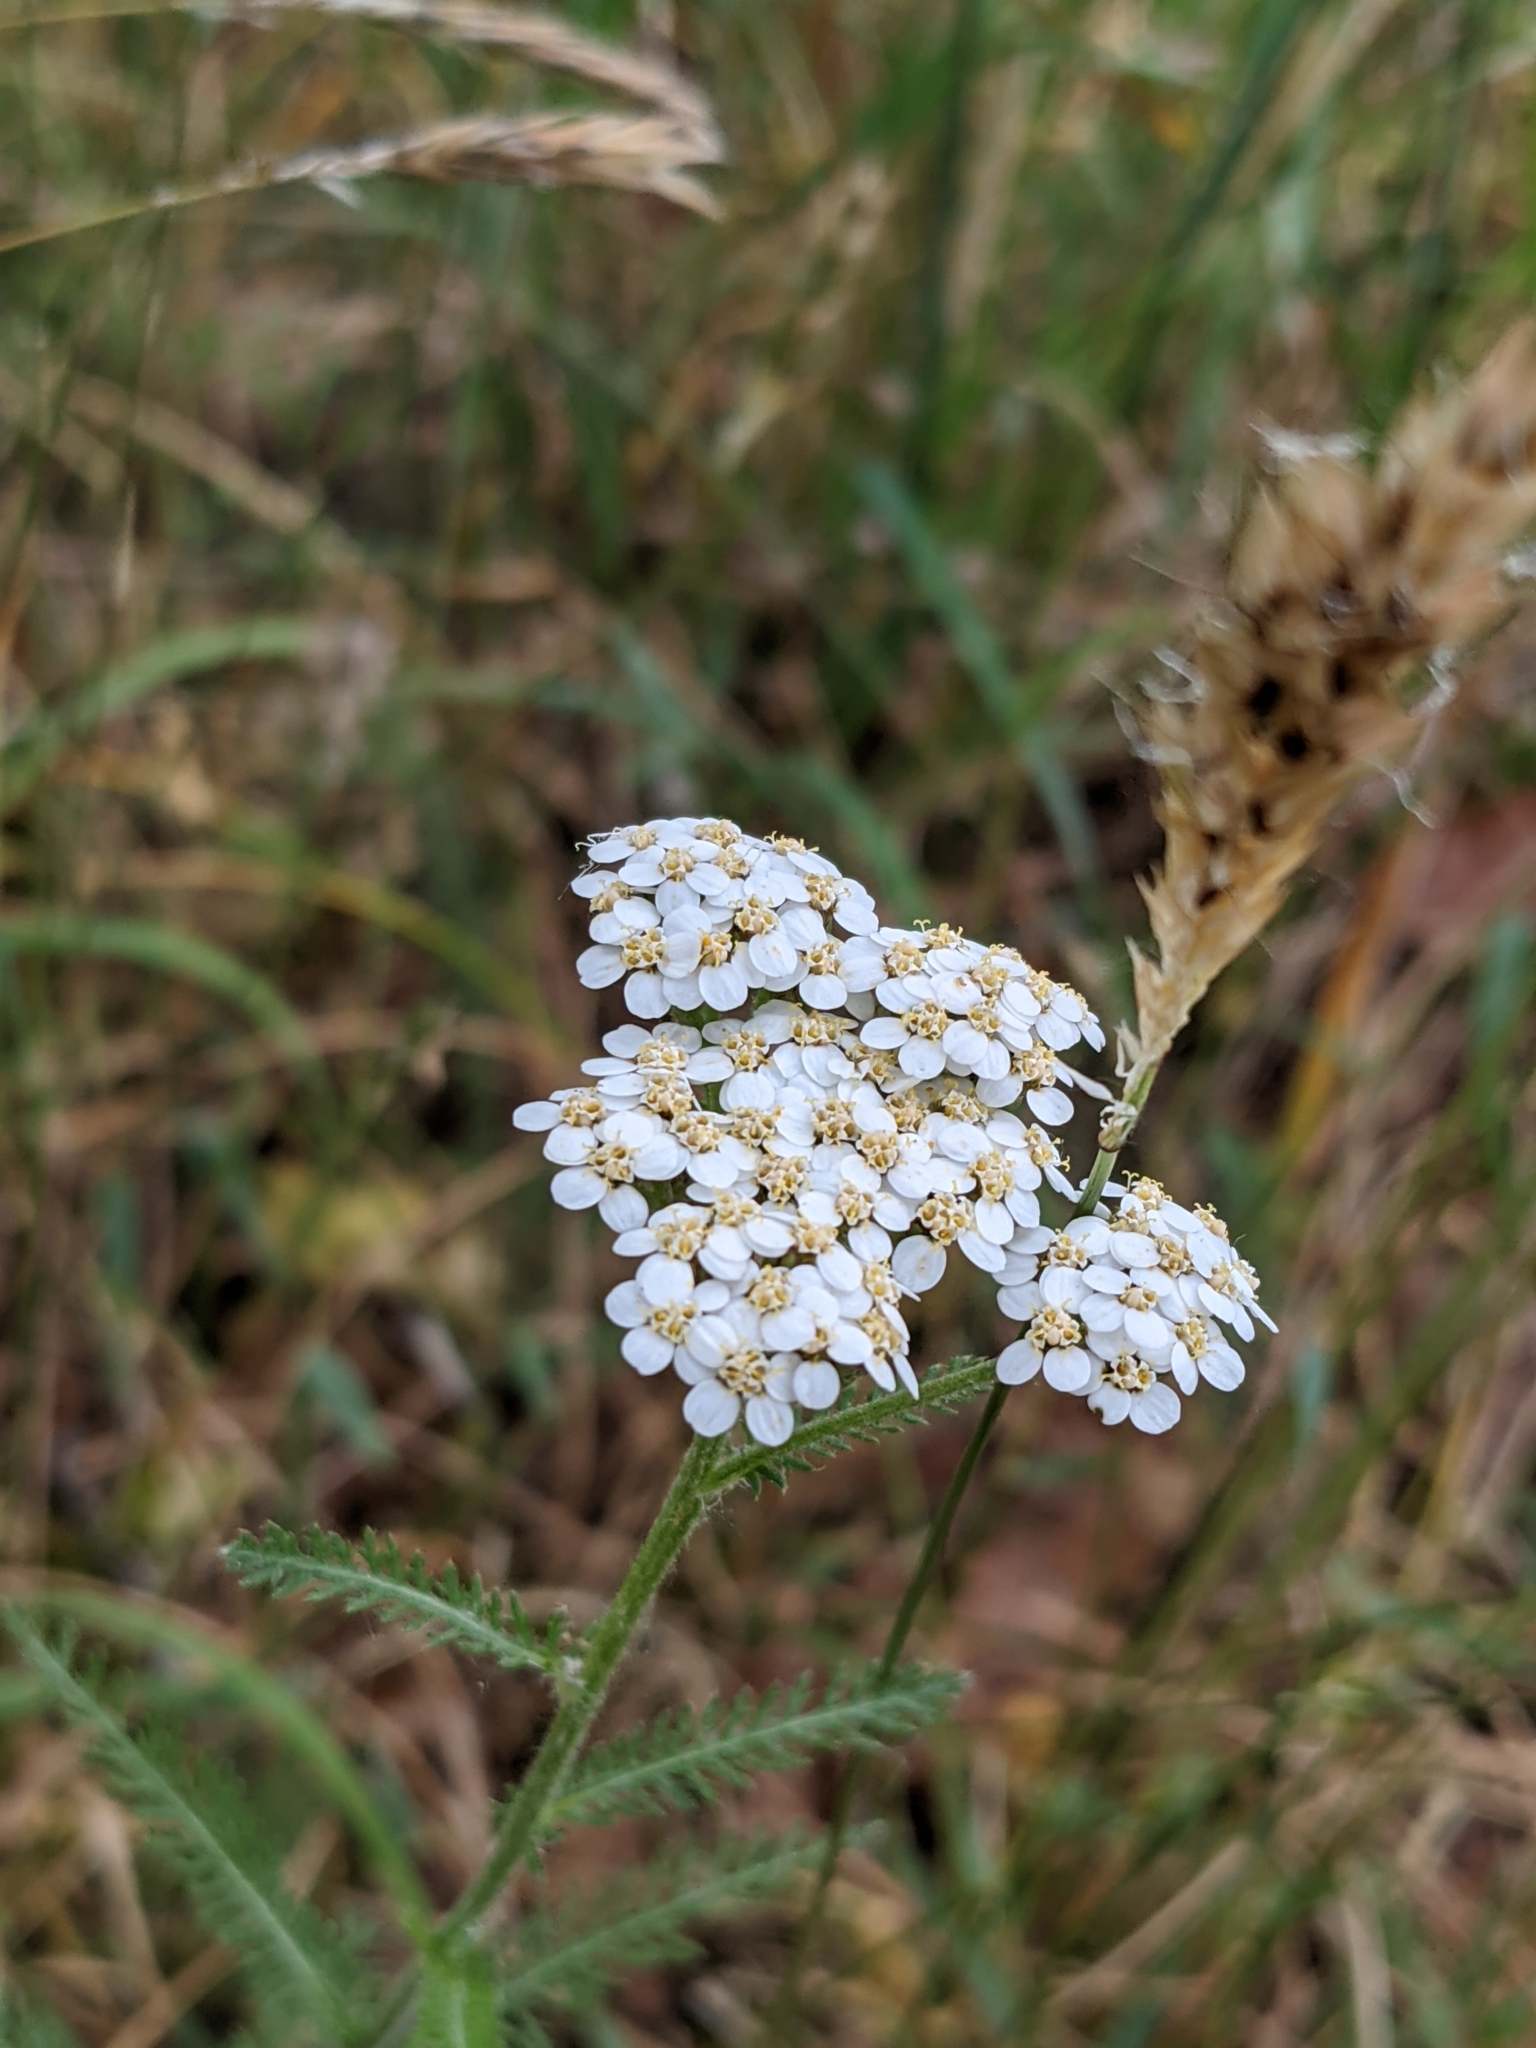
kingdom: Plantae
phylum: Tracheophyta
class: Magnoliopsida
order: Asterales
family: Asteraceae
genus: Achillea
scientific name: Achillea millefolium
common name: Yarrow
